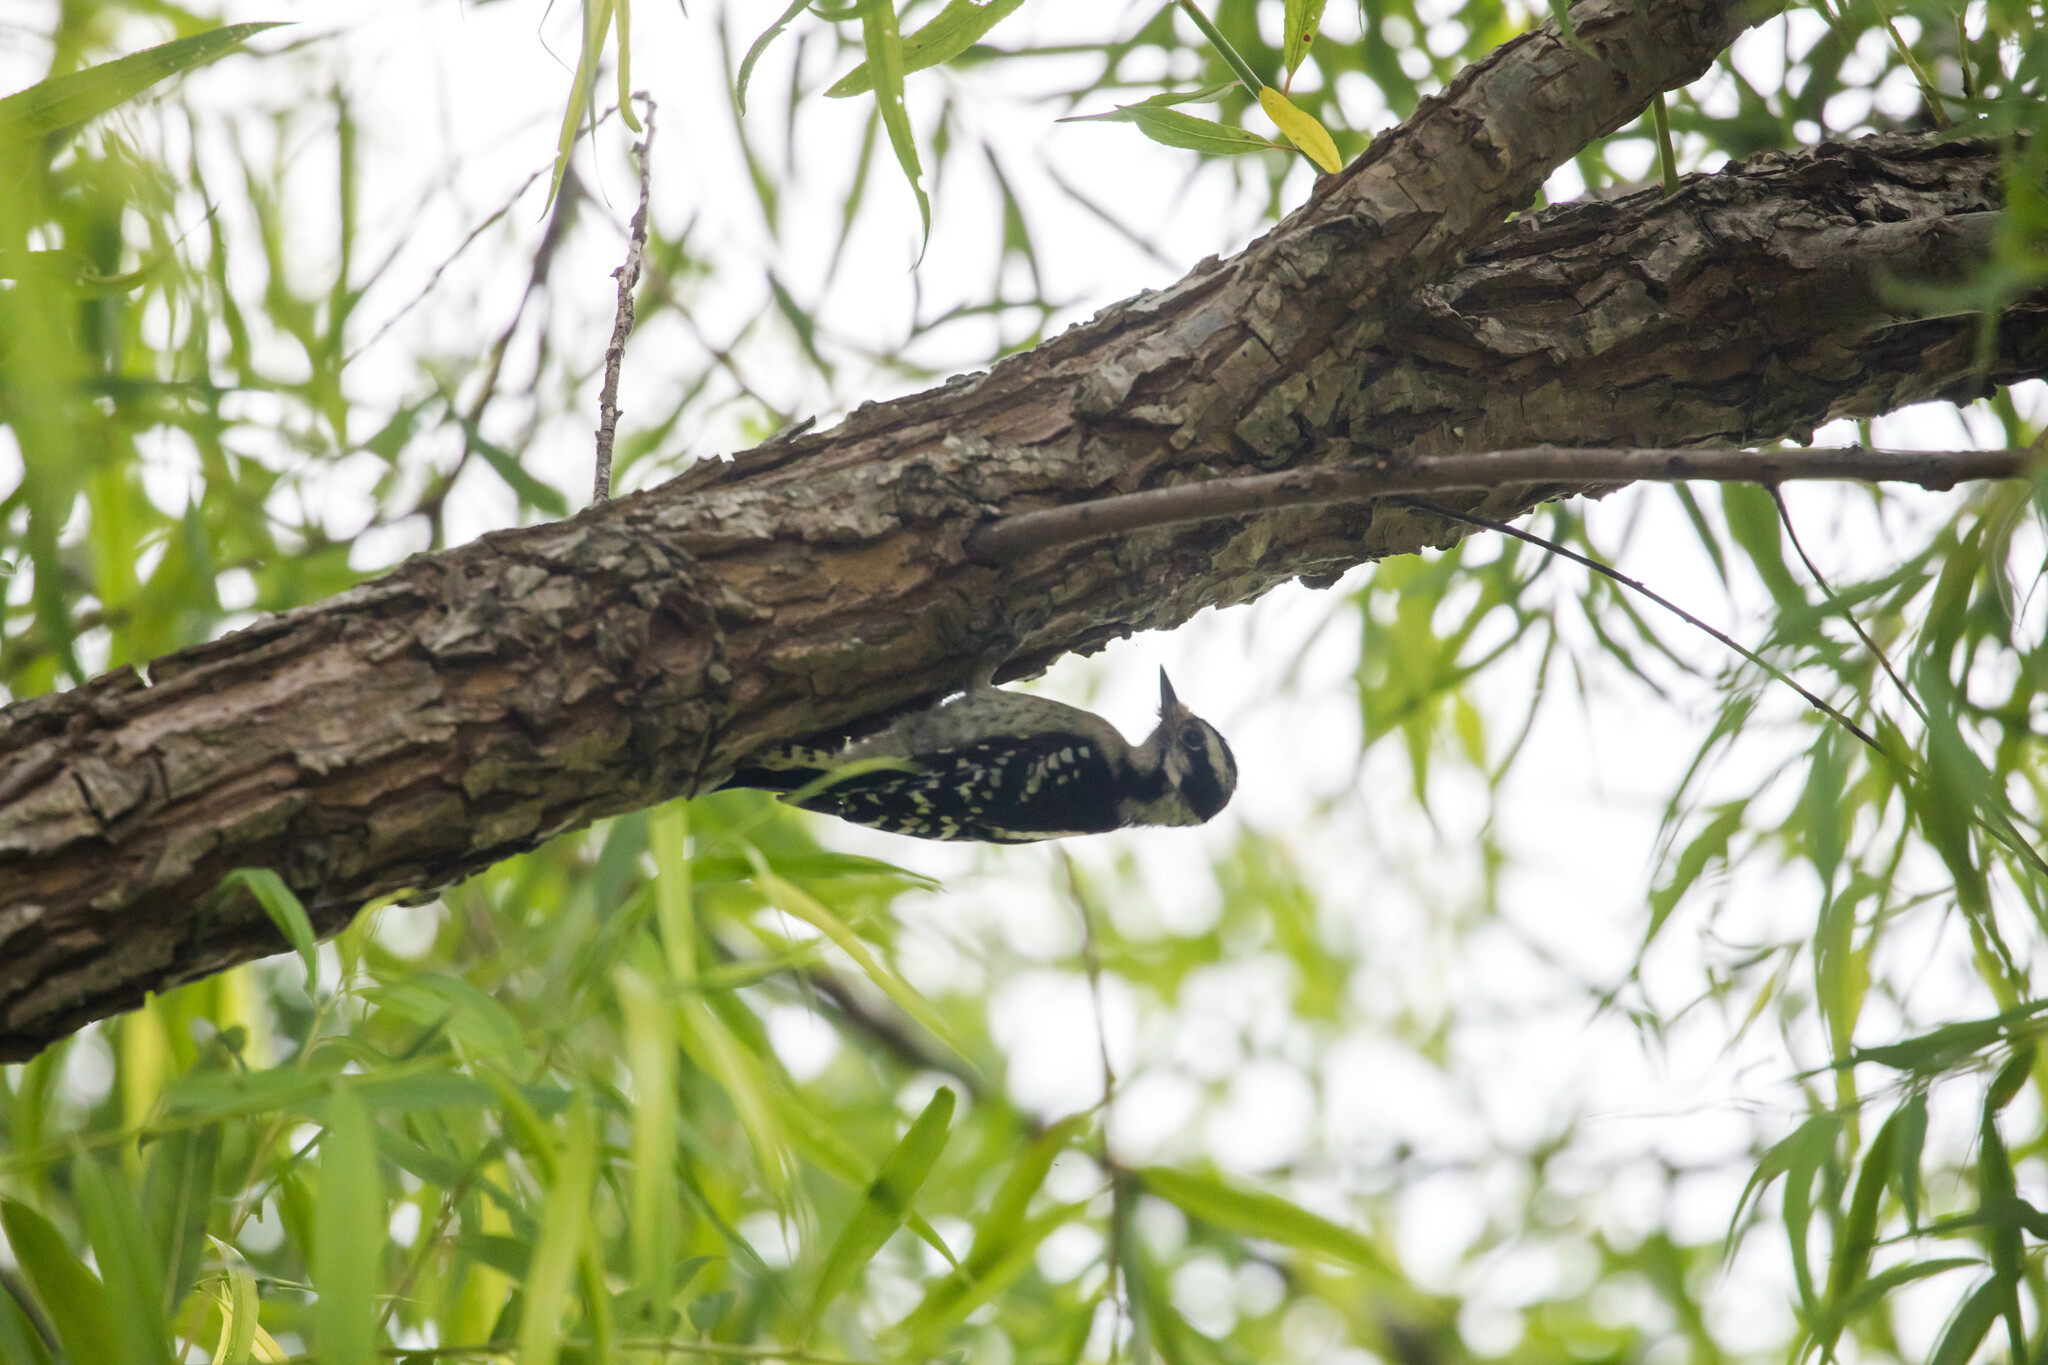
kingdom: Animalia
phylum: Chordata
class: Aves
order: Piciformes
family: Picidae
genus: Dryobates
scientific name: Dryobates pubescens
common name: Downy woodpecker
